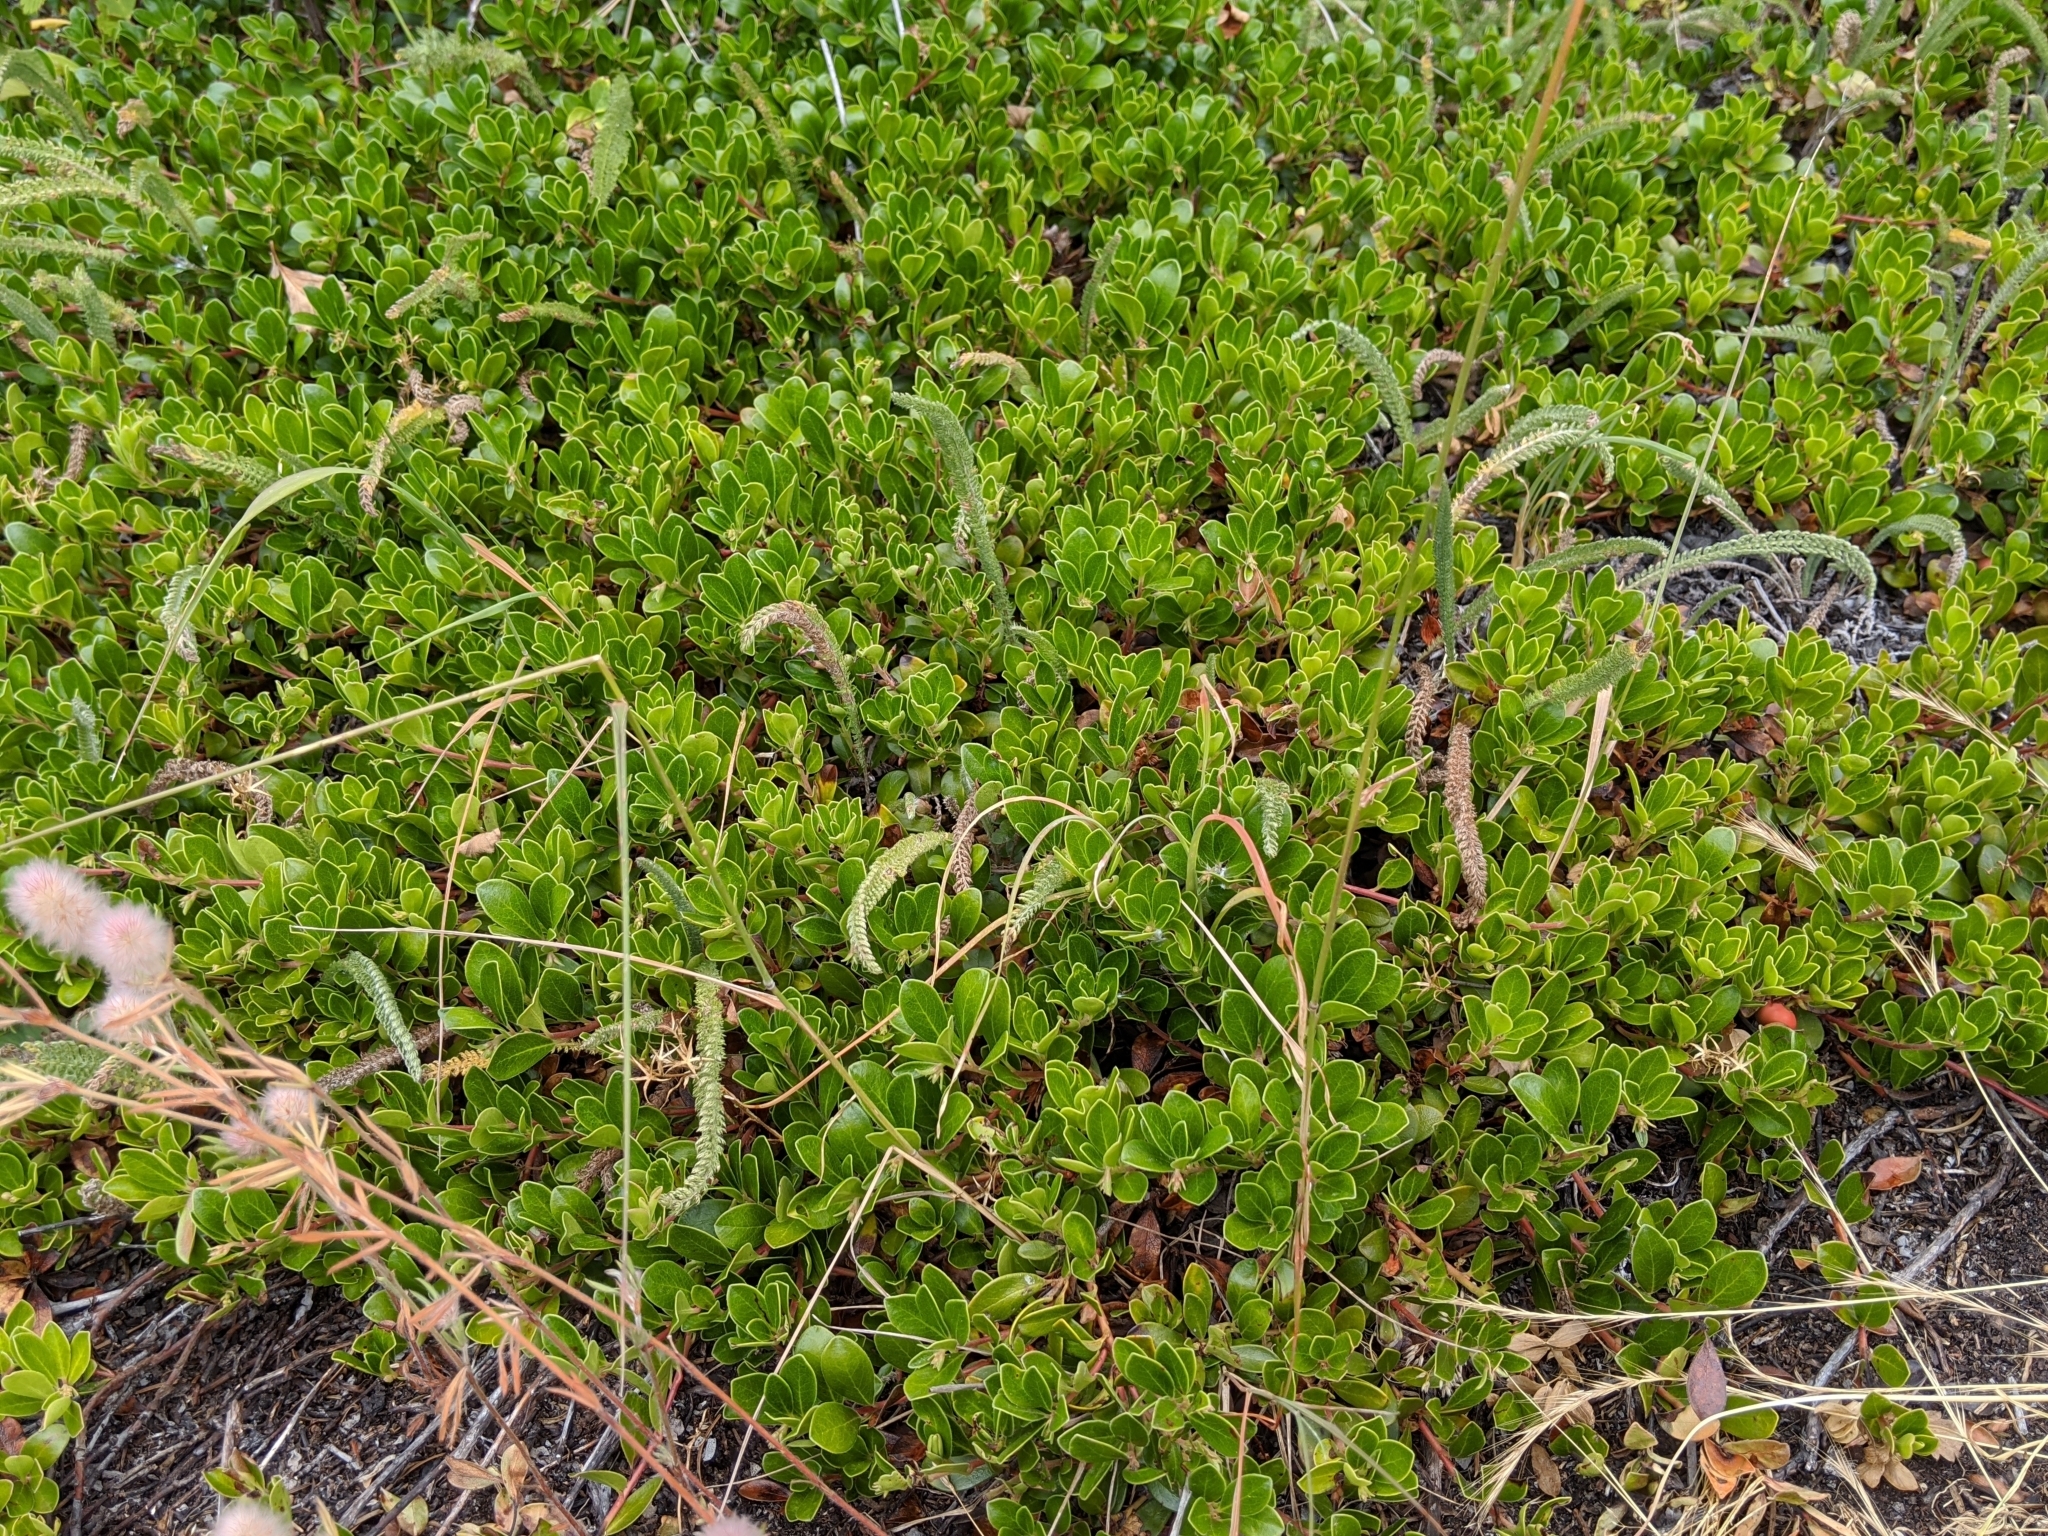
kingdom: Plantae
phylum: Tracheophyta
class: Magnoliopsida
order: Ericales
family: Ericaceae
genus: Arctostaphylos
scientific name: Arctostaphylos uva-ursi
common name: Bearberry
